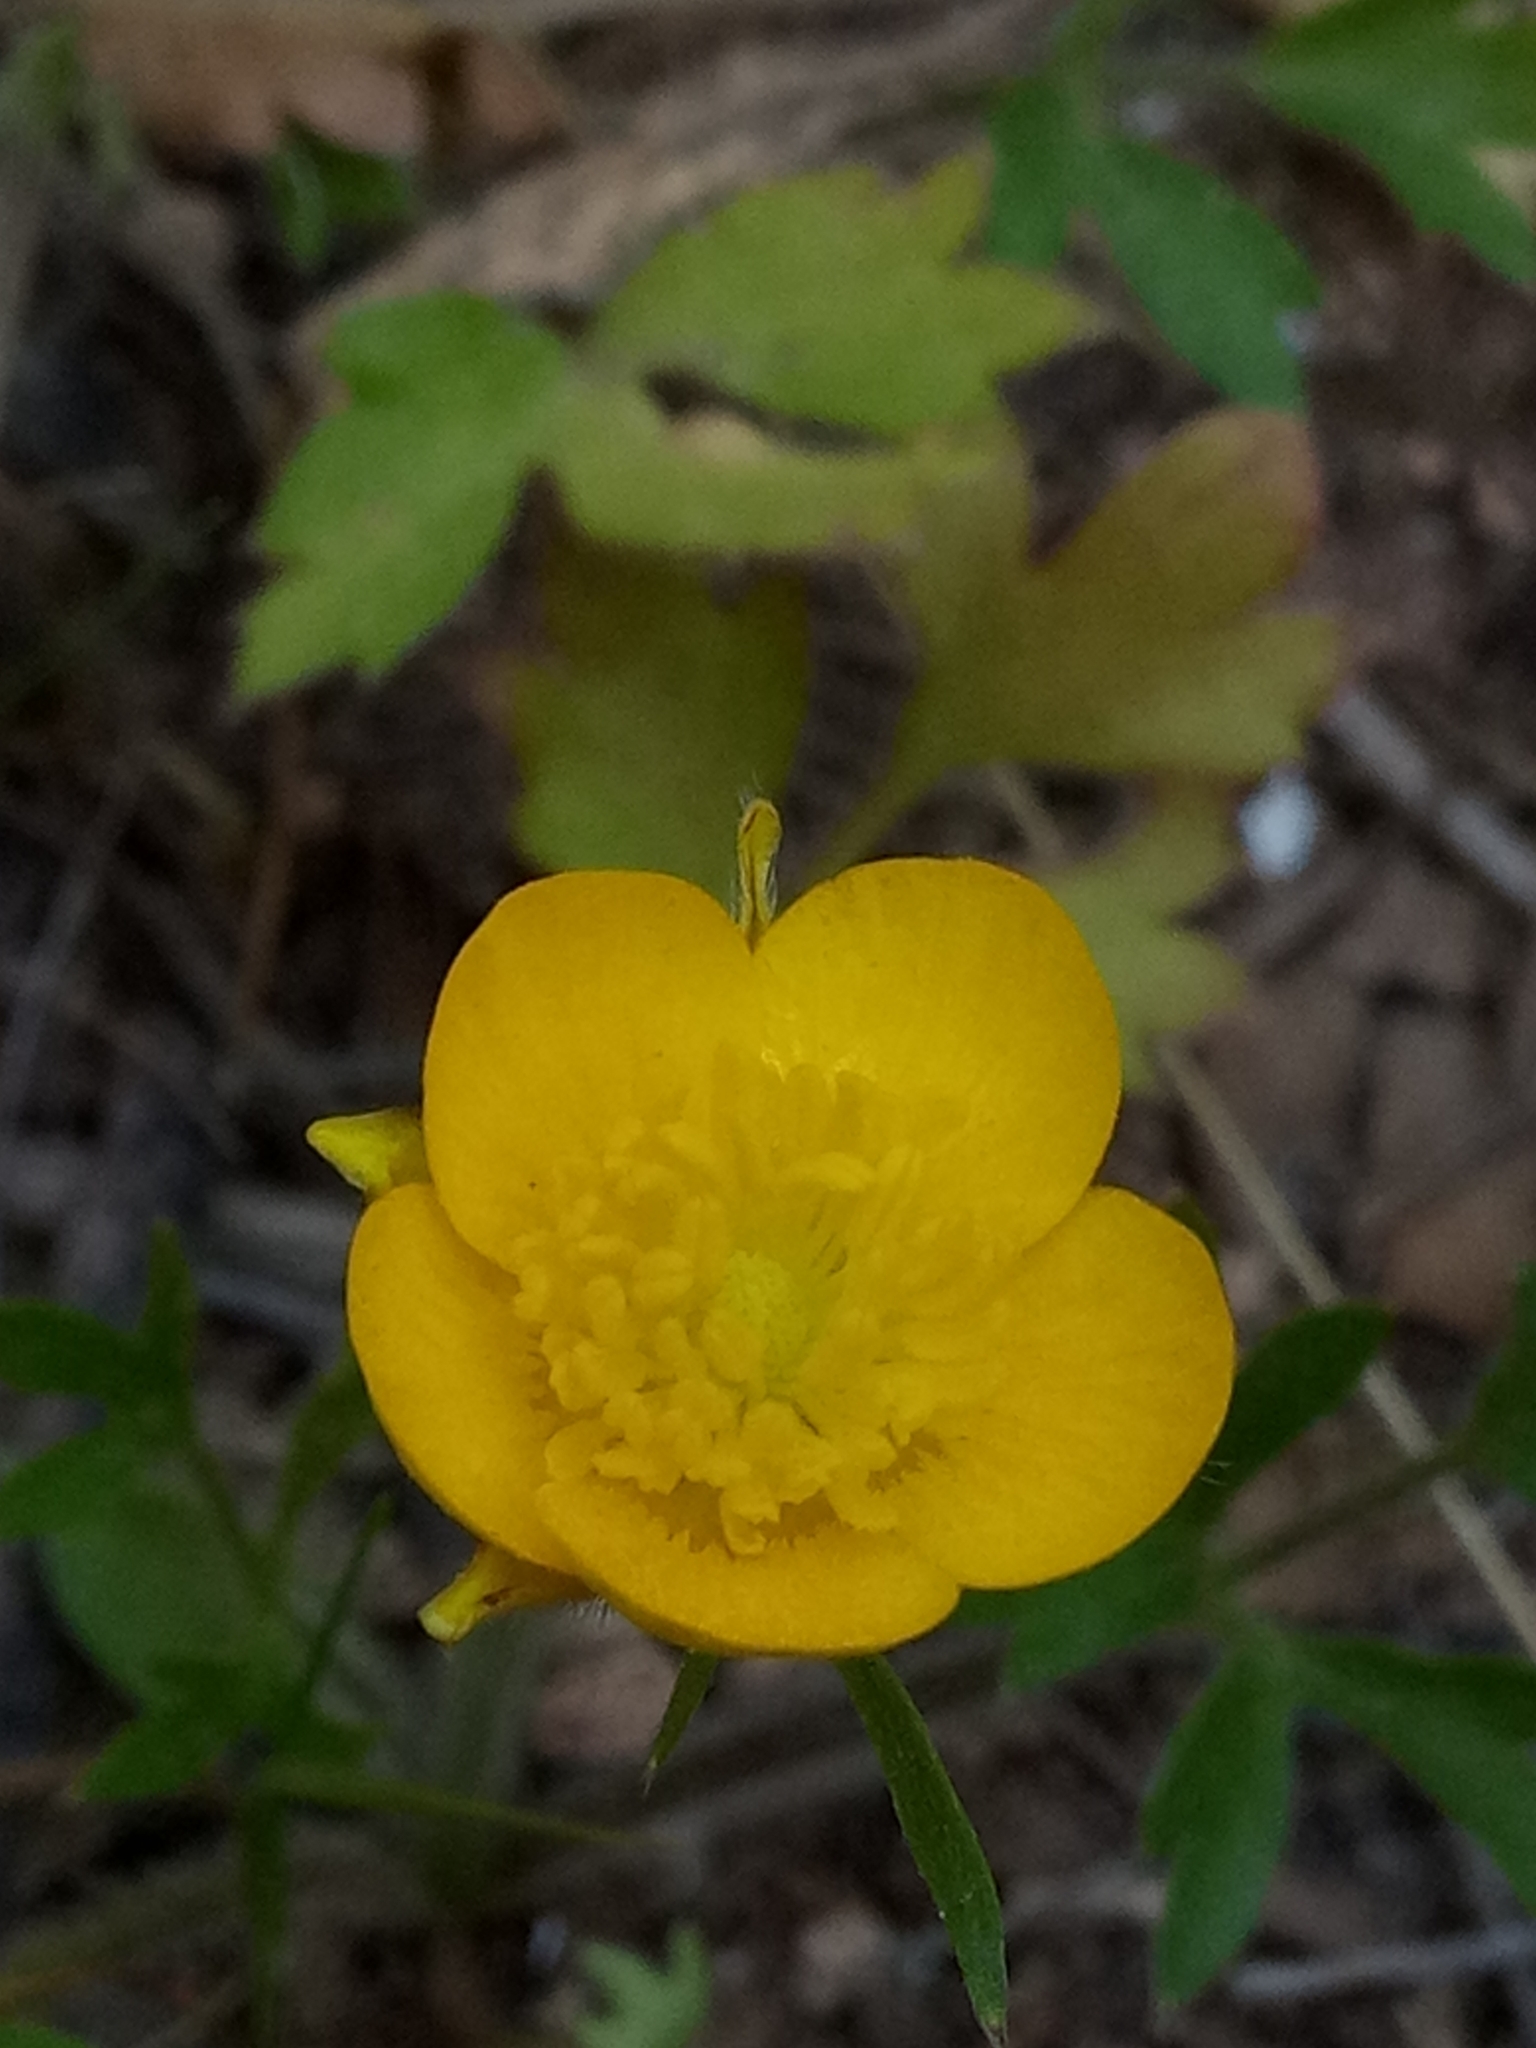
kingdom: Plantae
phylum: Tracheophyta
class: Magnoliopsida
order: Ranunculales
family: Ranunculaceae
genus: Ranunculus
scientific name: Ranunculus paludosus
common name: Jersey buttercup
